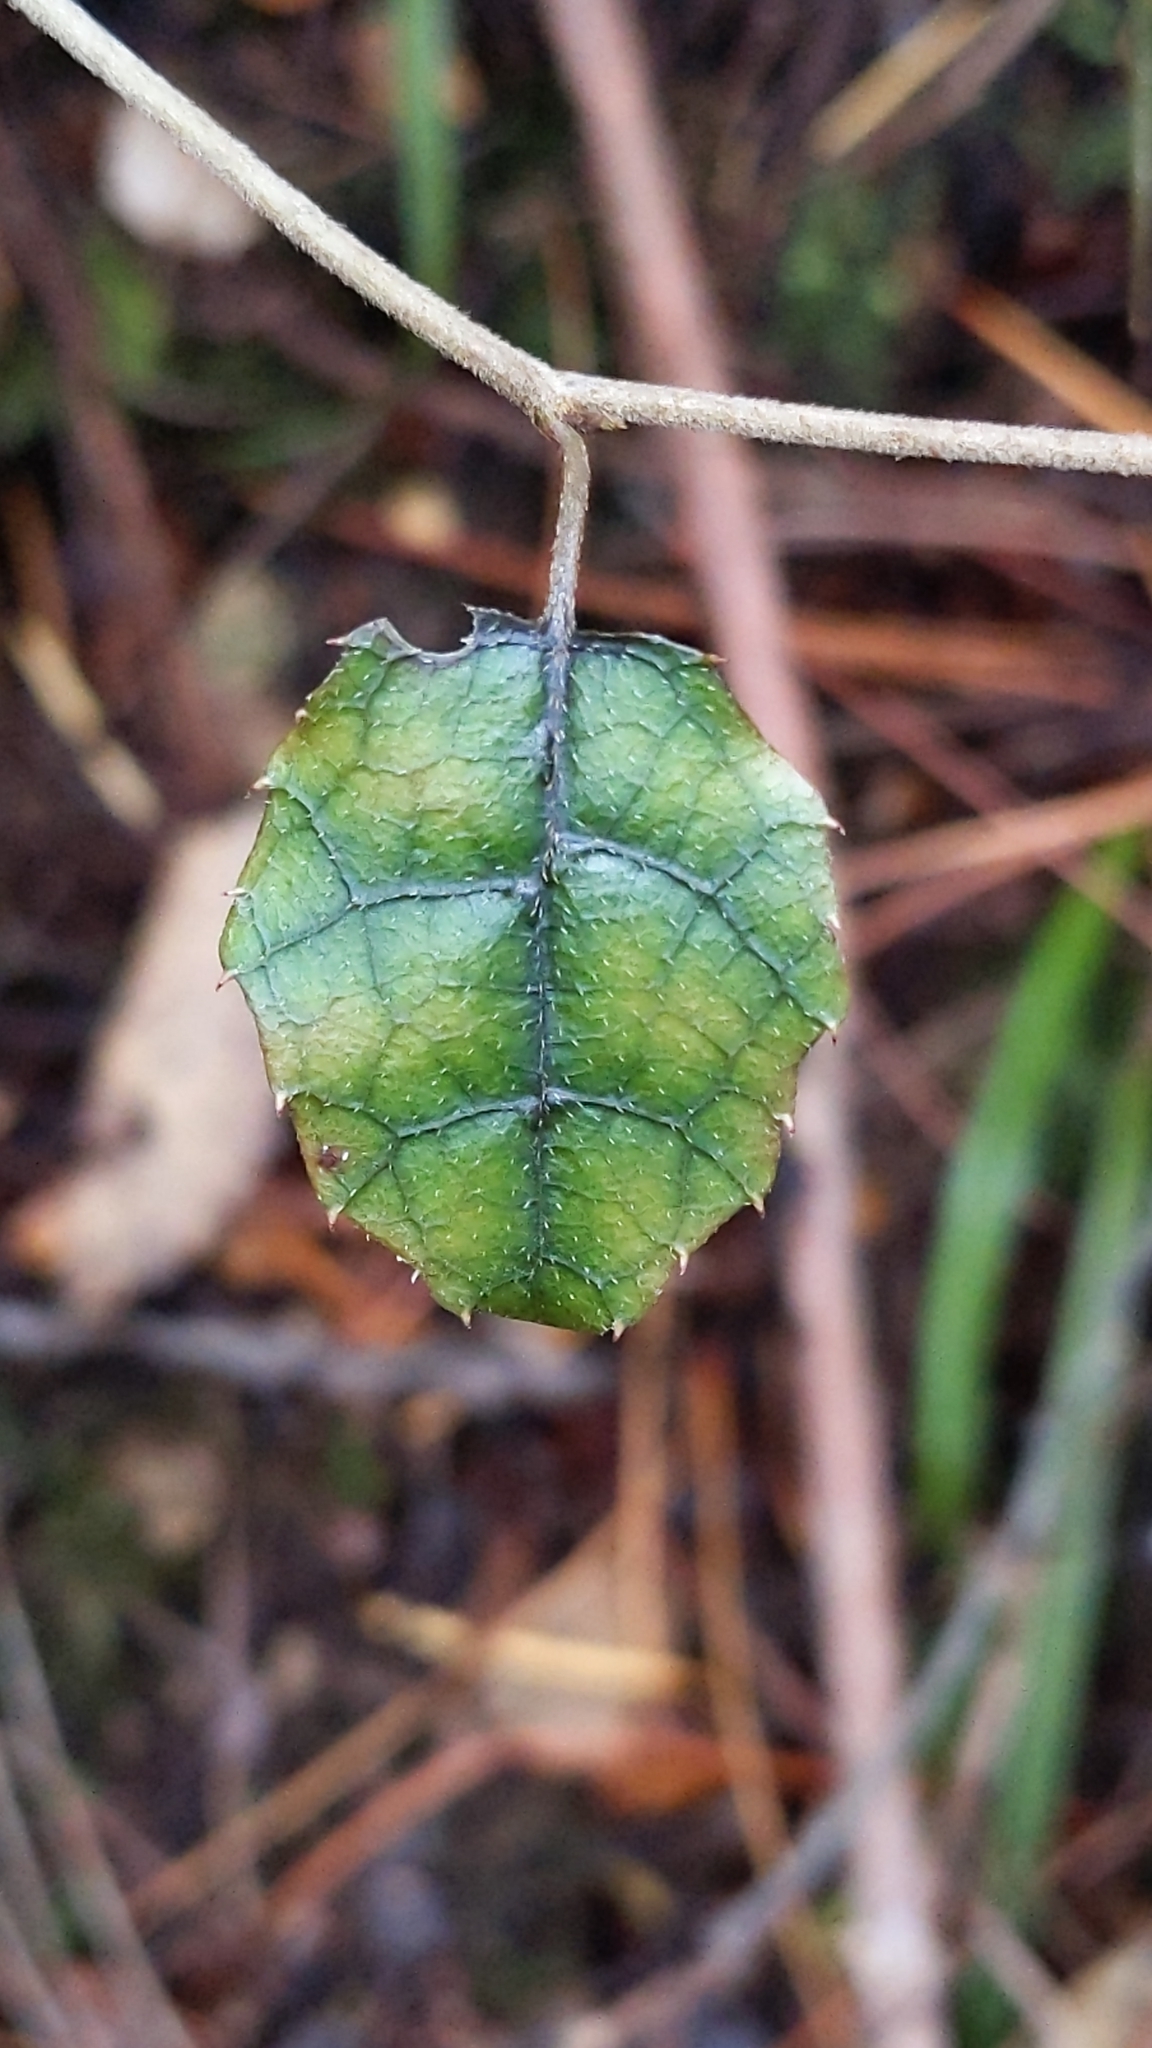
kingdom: Plantae
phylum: Tracheophyta
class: Magnoliopsida
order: Asterales
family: Rousseaceae
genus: Carpodetus
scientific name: Carpodetus serratus
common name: White mapau
